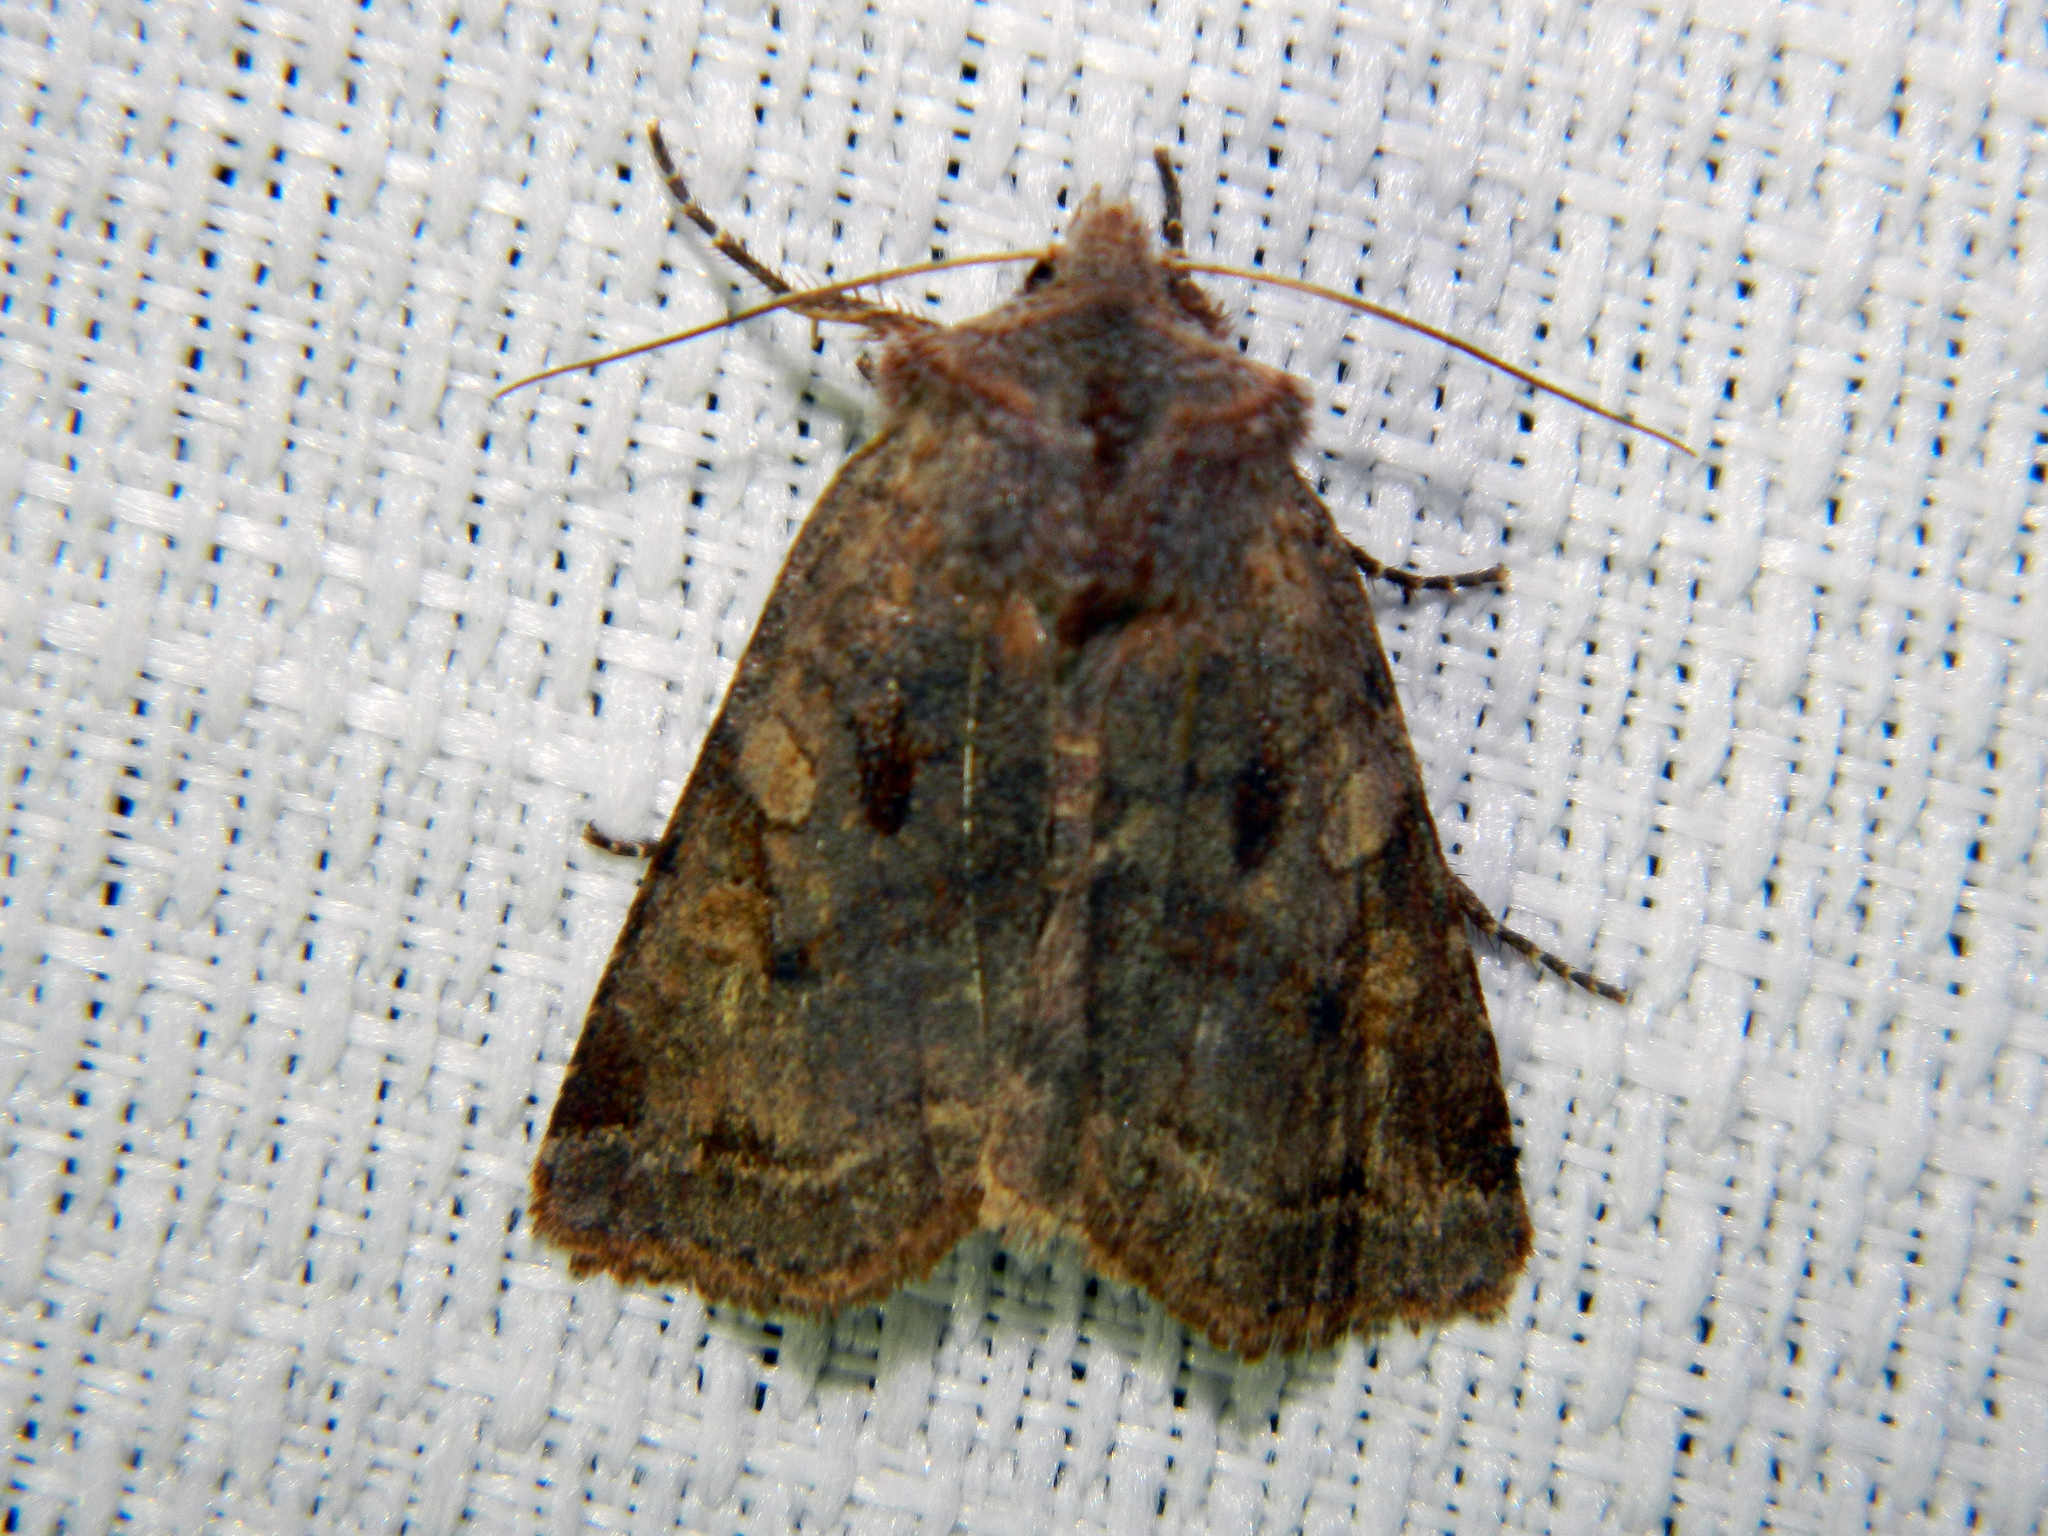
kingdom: Animalia
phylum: Arthropoda
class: Insecta
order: Lepidoptera
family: Noctuidae
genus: Cerastis
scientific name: Cerastis salicarum
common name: Willow dart
